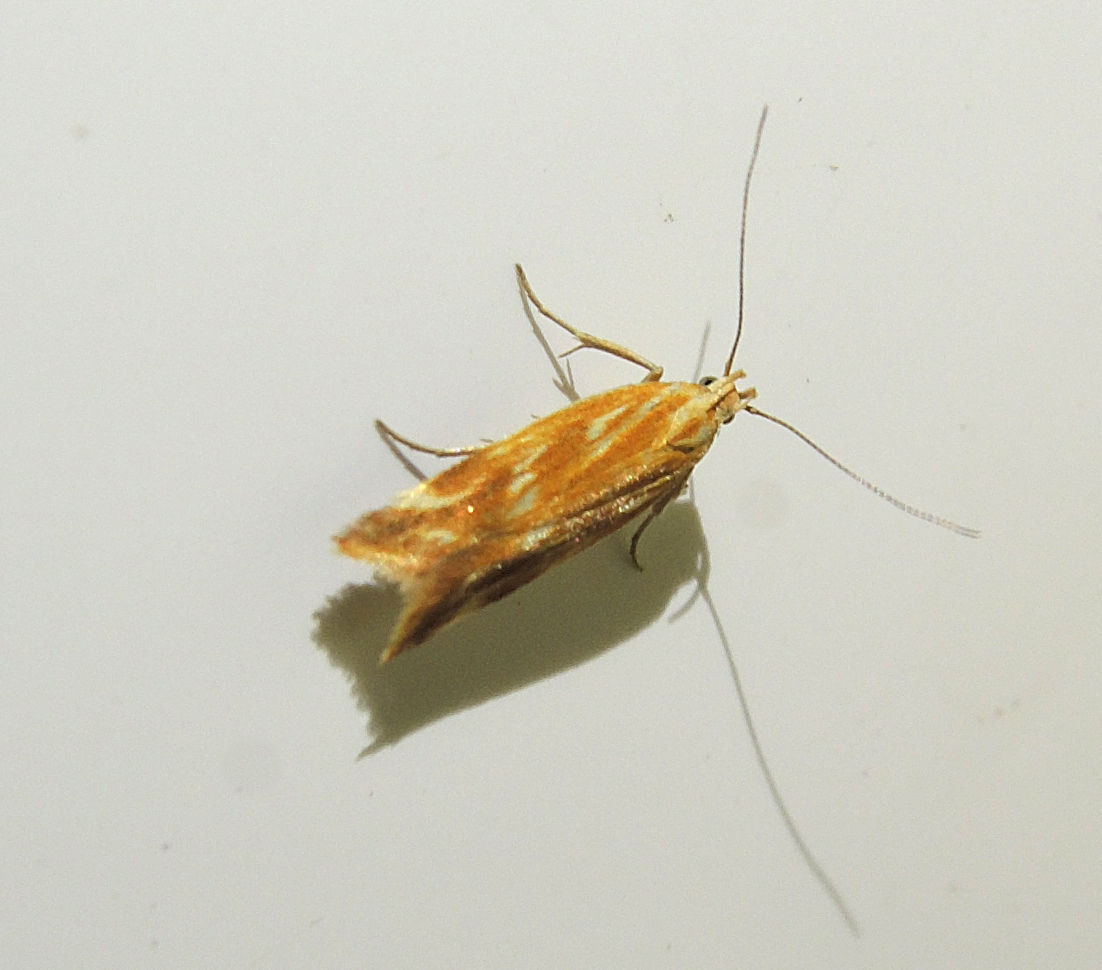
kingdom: Animalia
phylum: Arthropoda
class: Insecta
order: Lepidoptera
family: Gelechiidae
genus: Mirificarma
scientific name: Mirificarma eburnella
